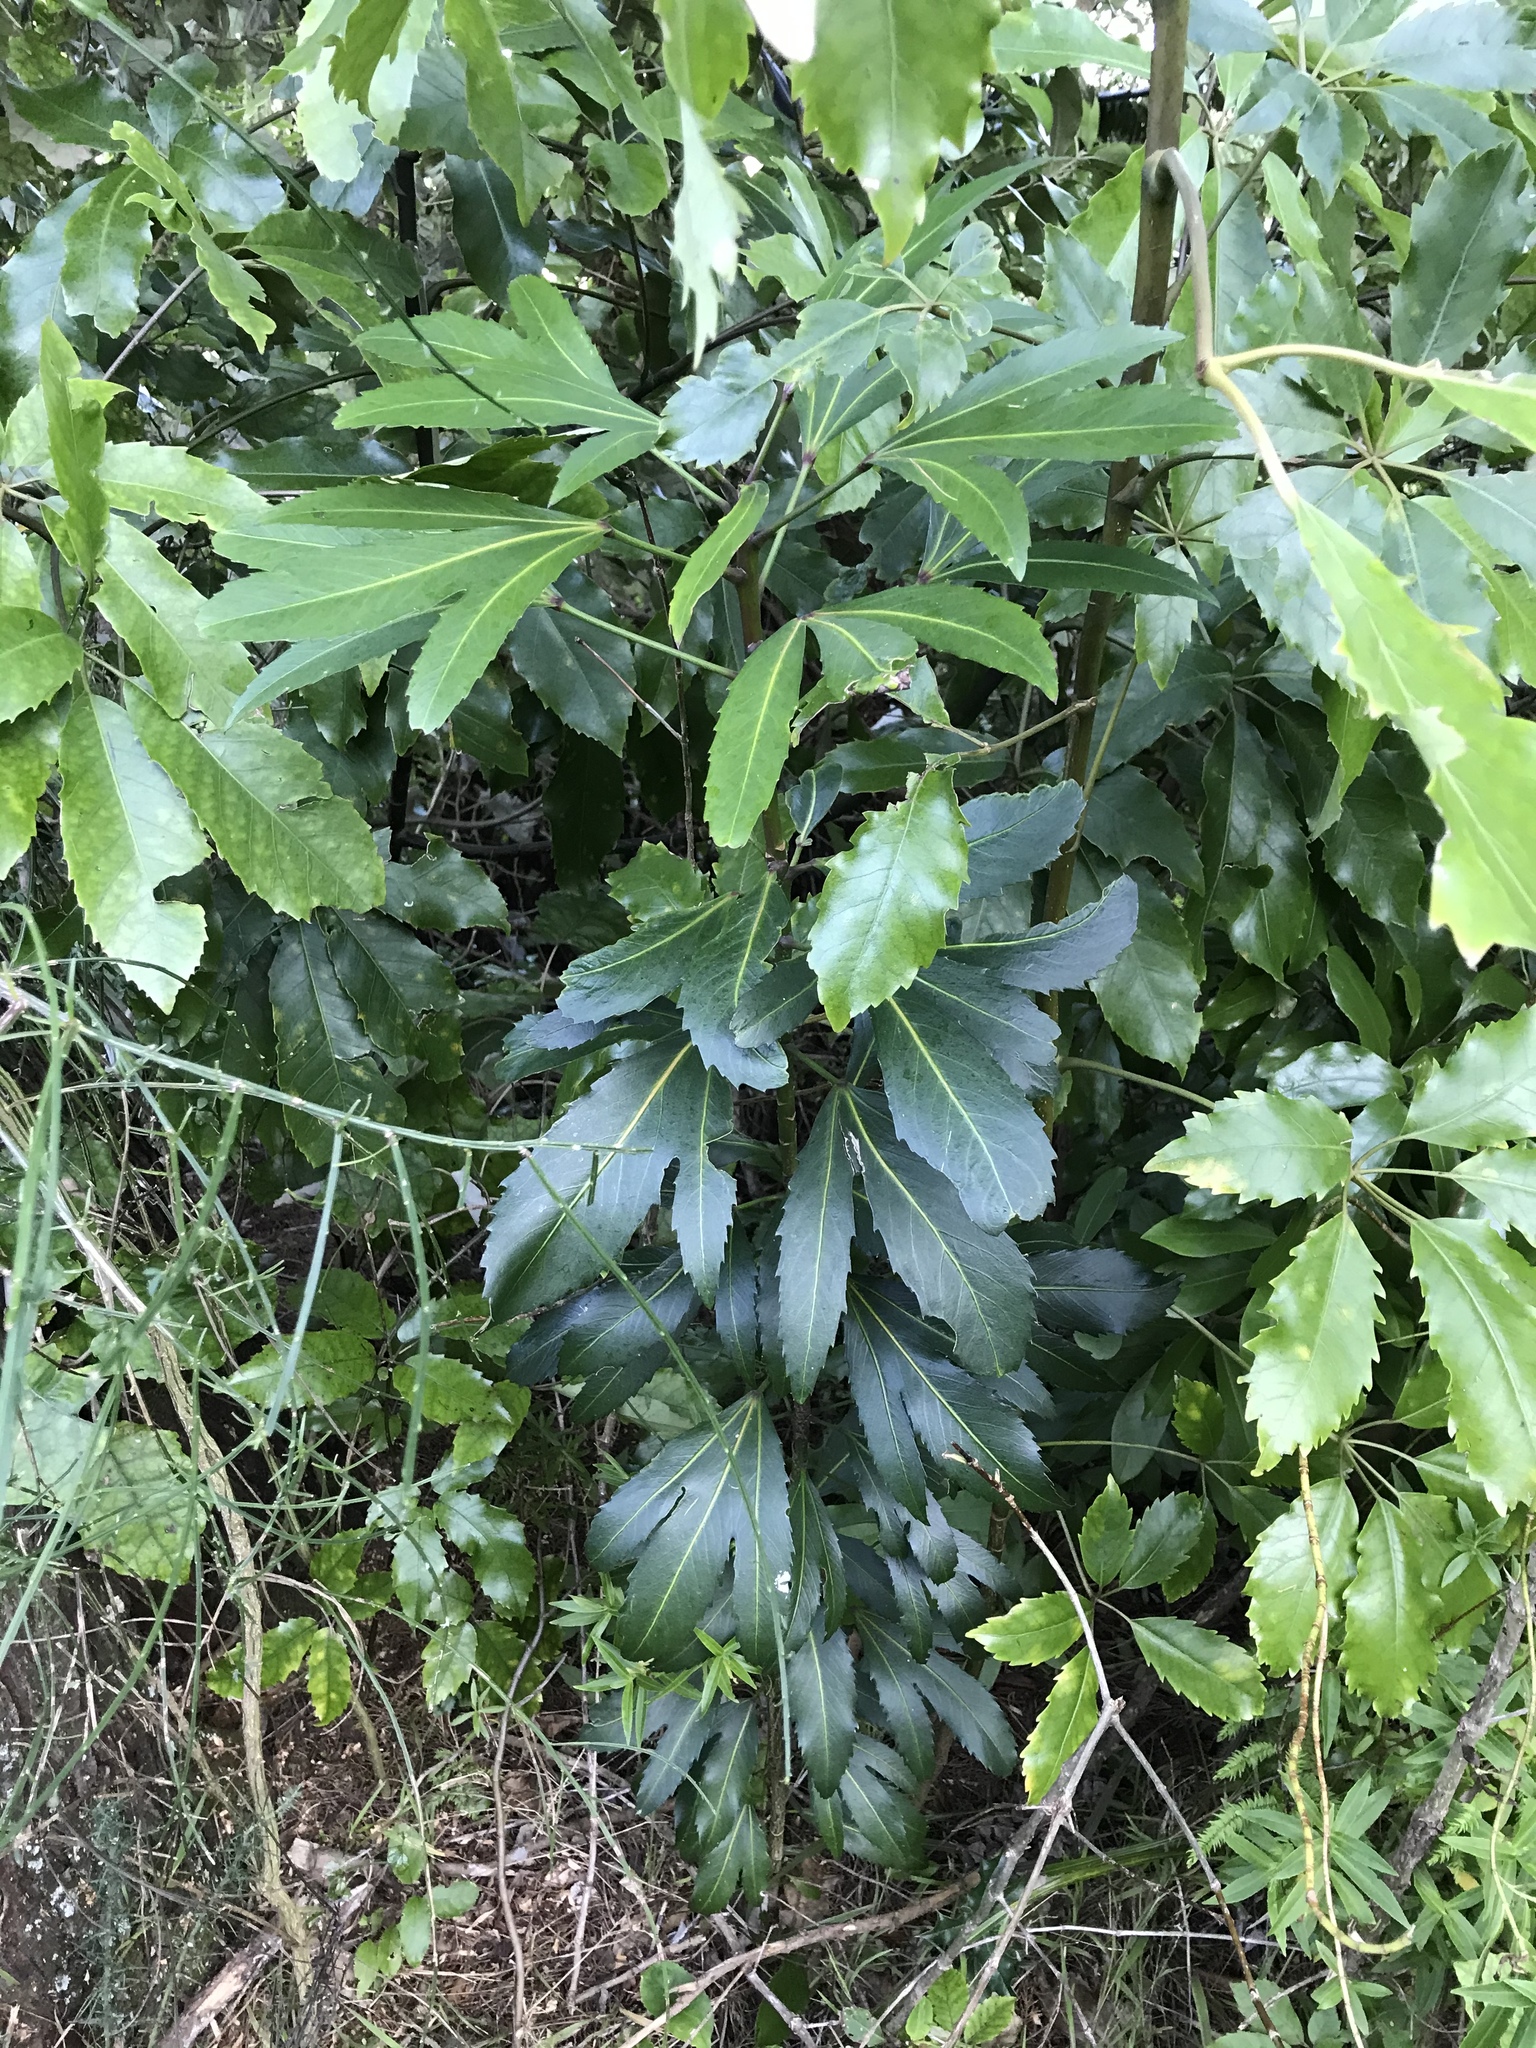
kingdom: Plantae
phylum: Tracheophyta
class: Magnoliopsida
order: Apiales
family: Araliaceae
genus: Pseudopanax
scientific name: Pseudopanax
